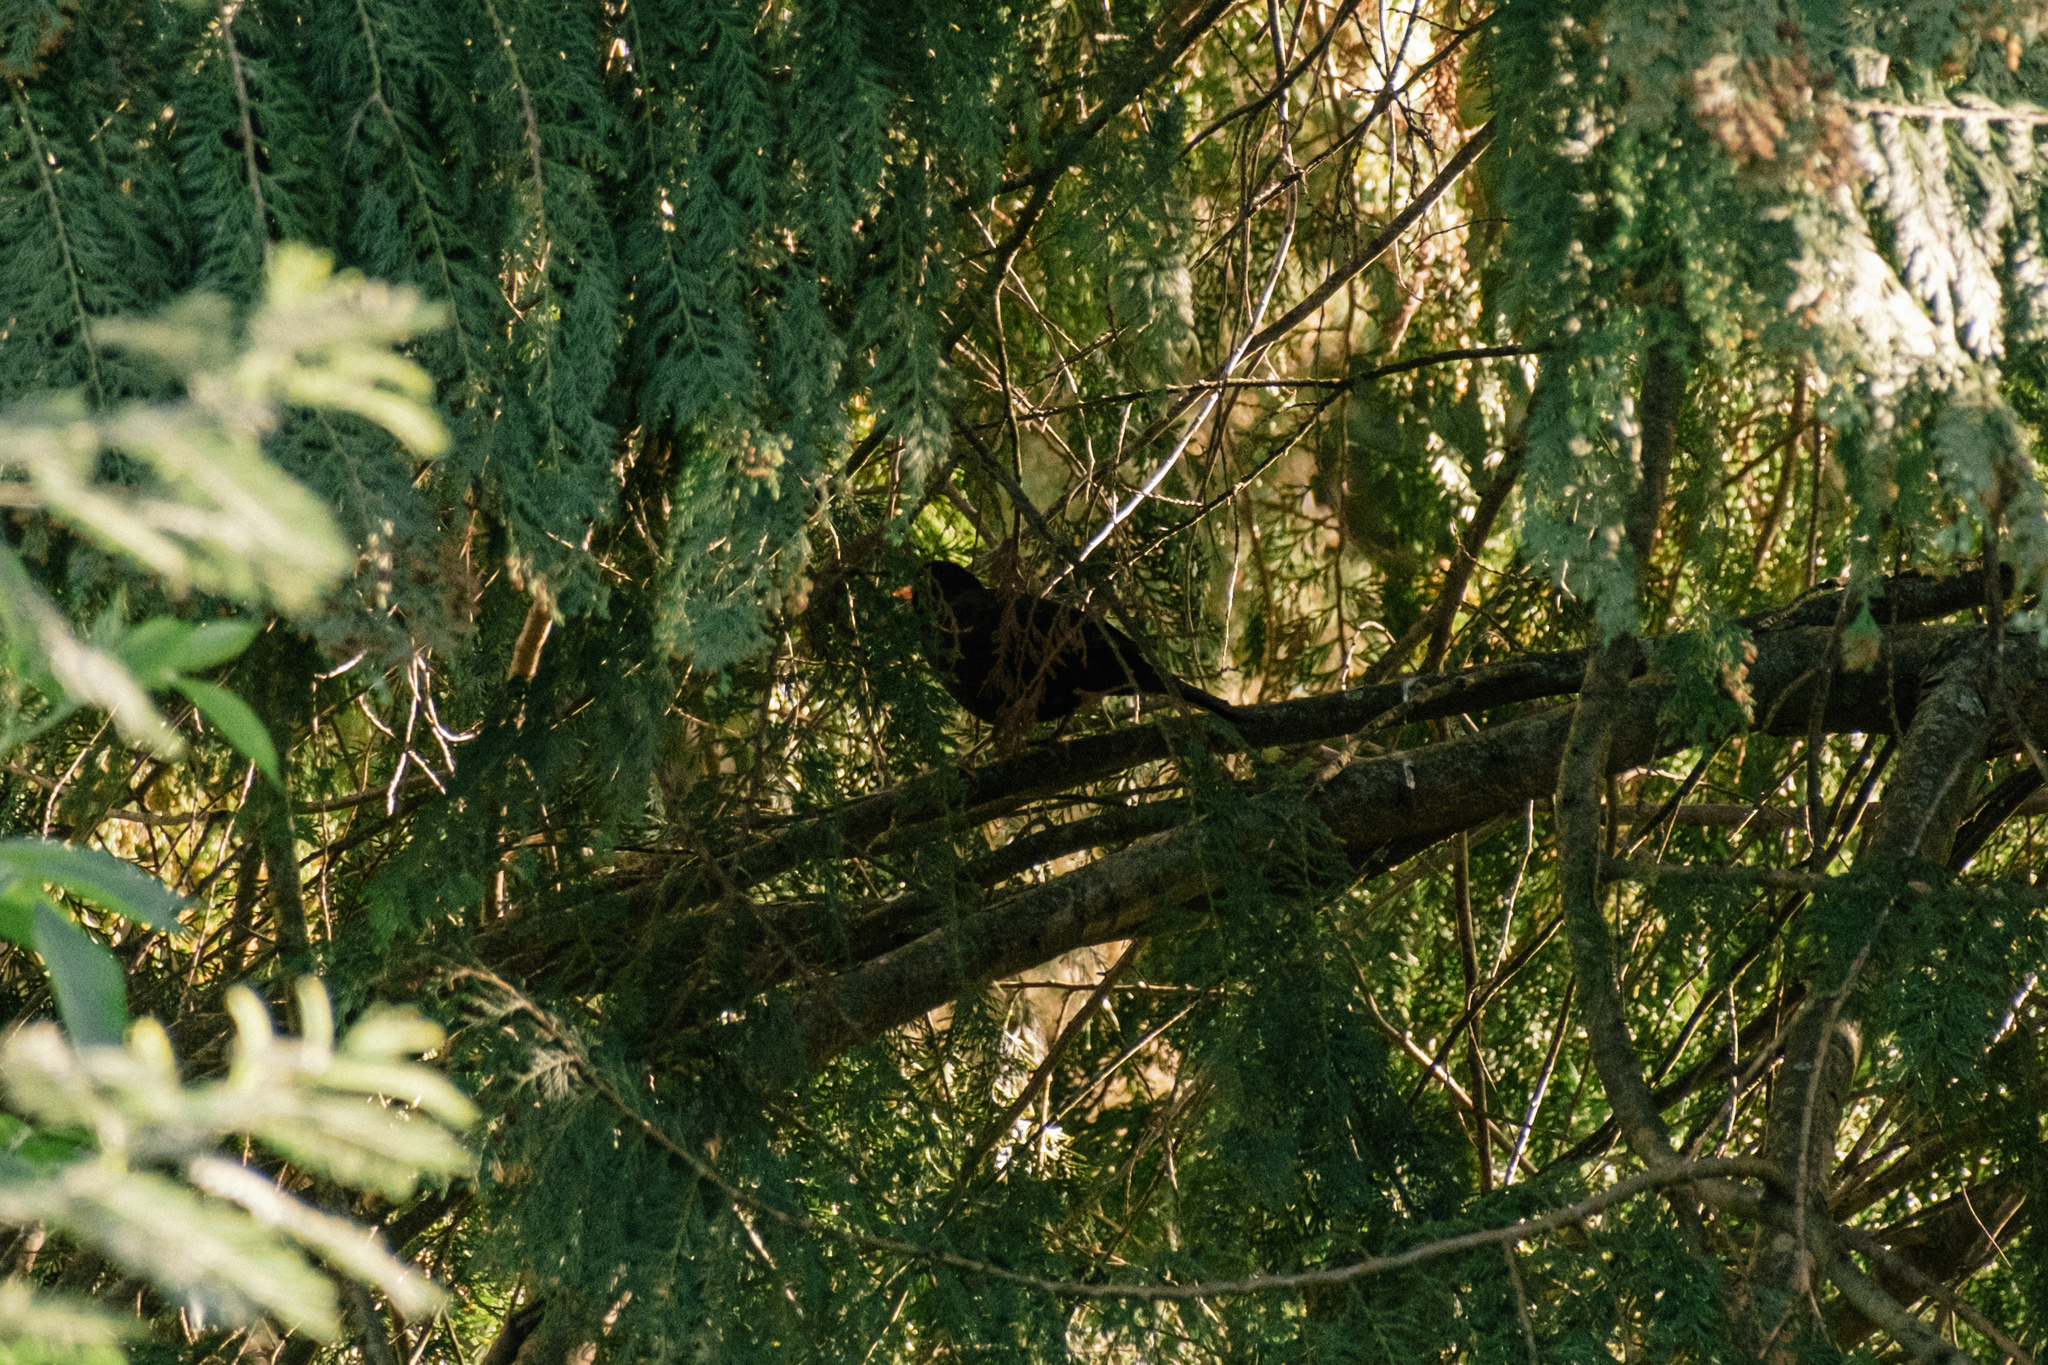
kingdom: Animalia
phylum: Chordata
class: Aves
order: Passeriformes
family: Turdidae
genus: Turdus
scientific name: Turdus merula
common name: Common blackbird
